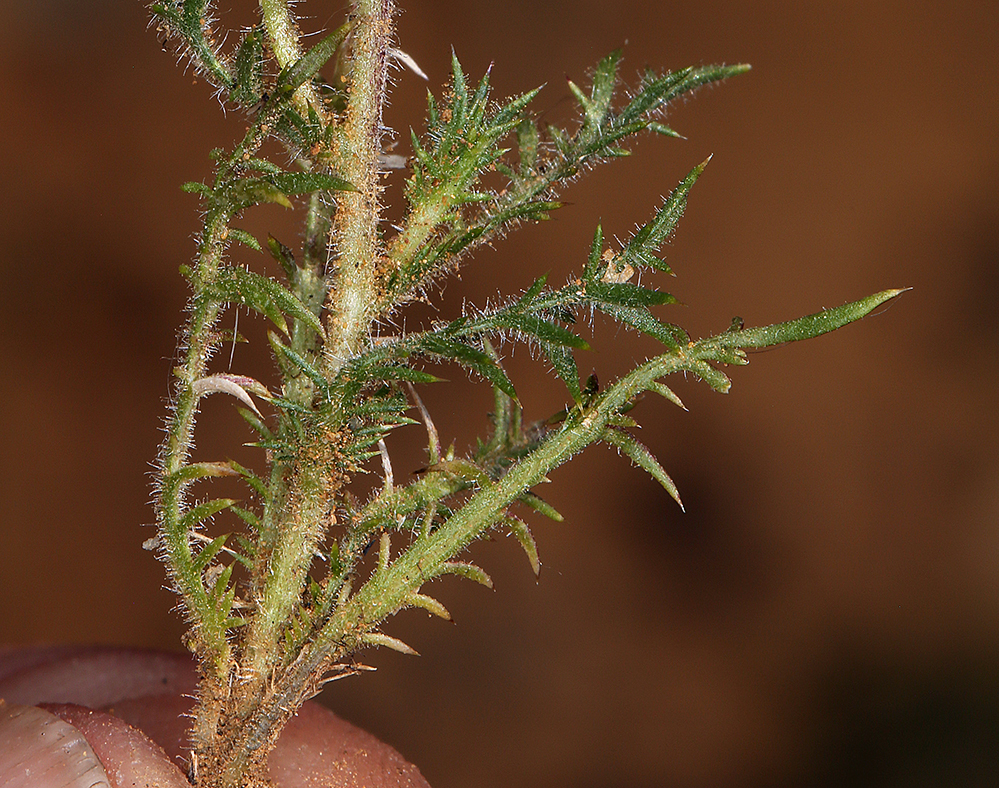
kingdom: Plantae
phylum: Tracheophyta
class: Magnoliopsida
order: Ericales
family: Polemoniaceae
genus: Navarretia
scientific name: Navarretia mellita
